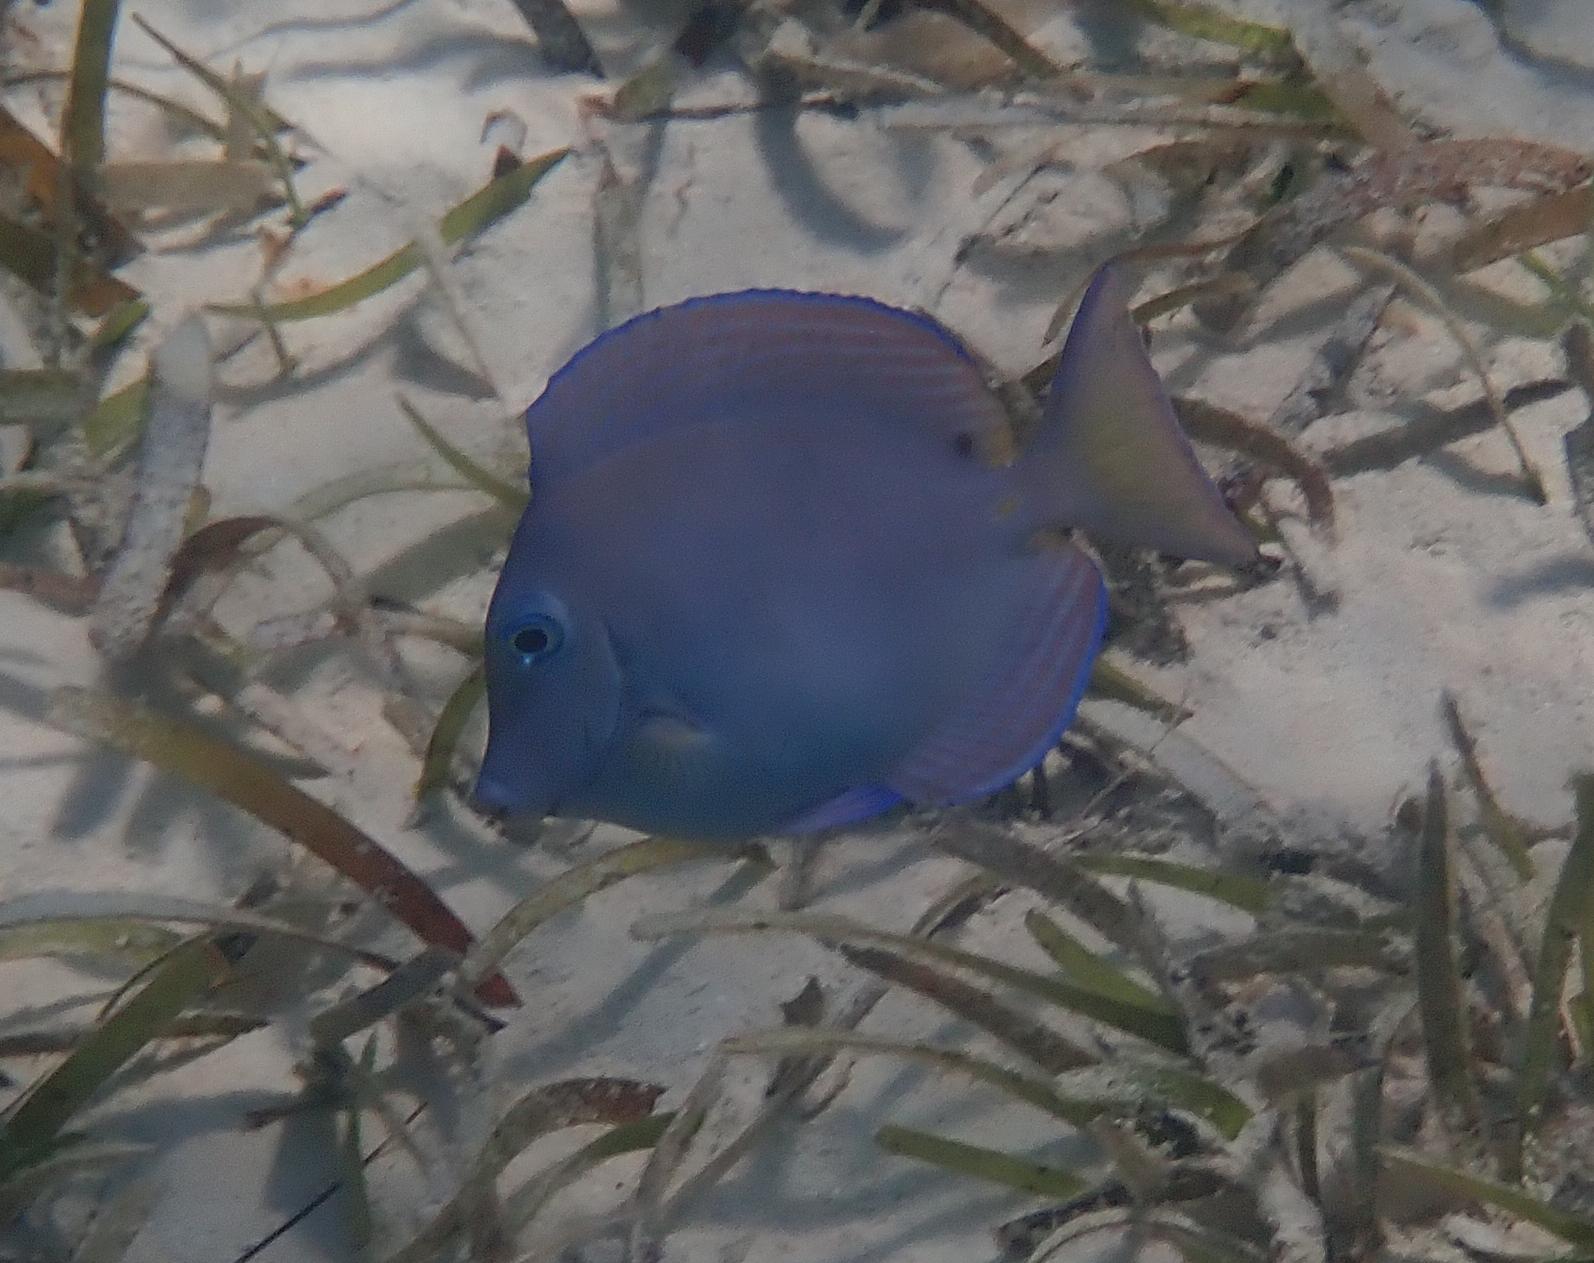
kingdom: Animalia
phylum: Chordata
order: Perciformes
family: Acanthuridae
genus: Acanthurus
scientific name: Acanthurus coeruleus
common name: Blue tang
